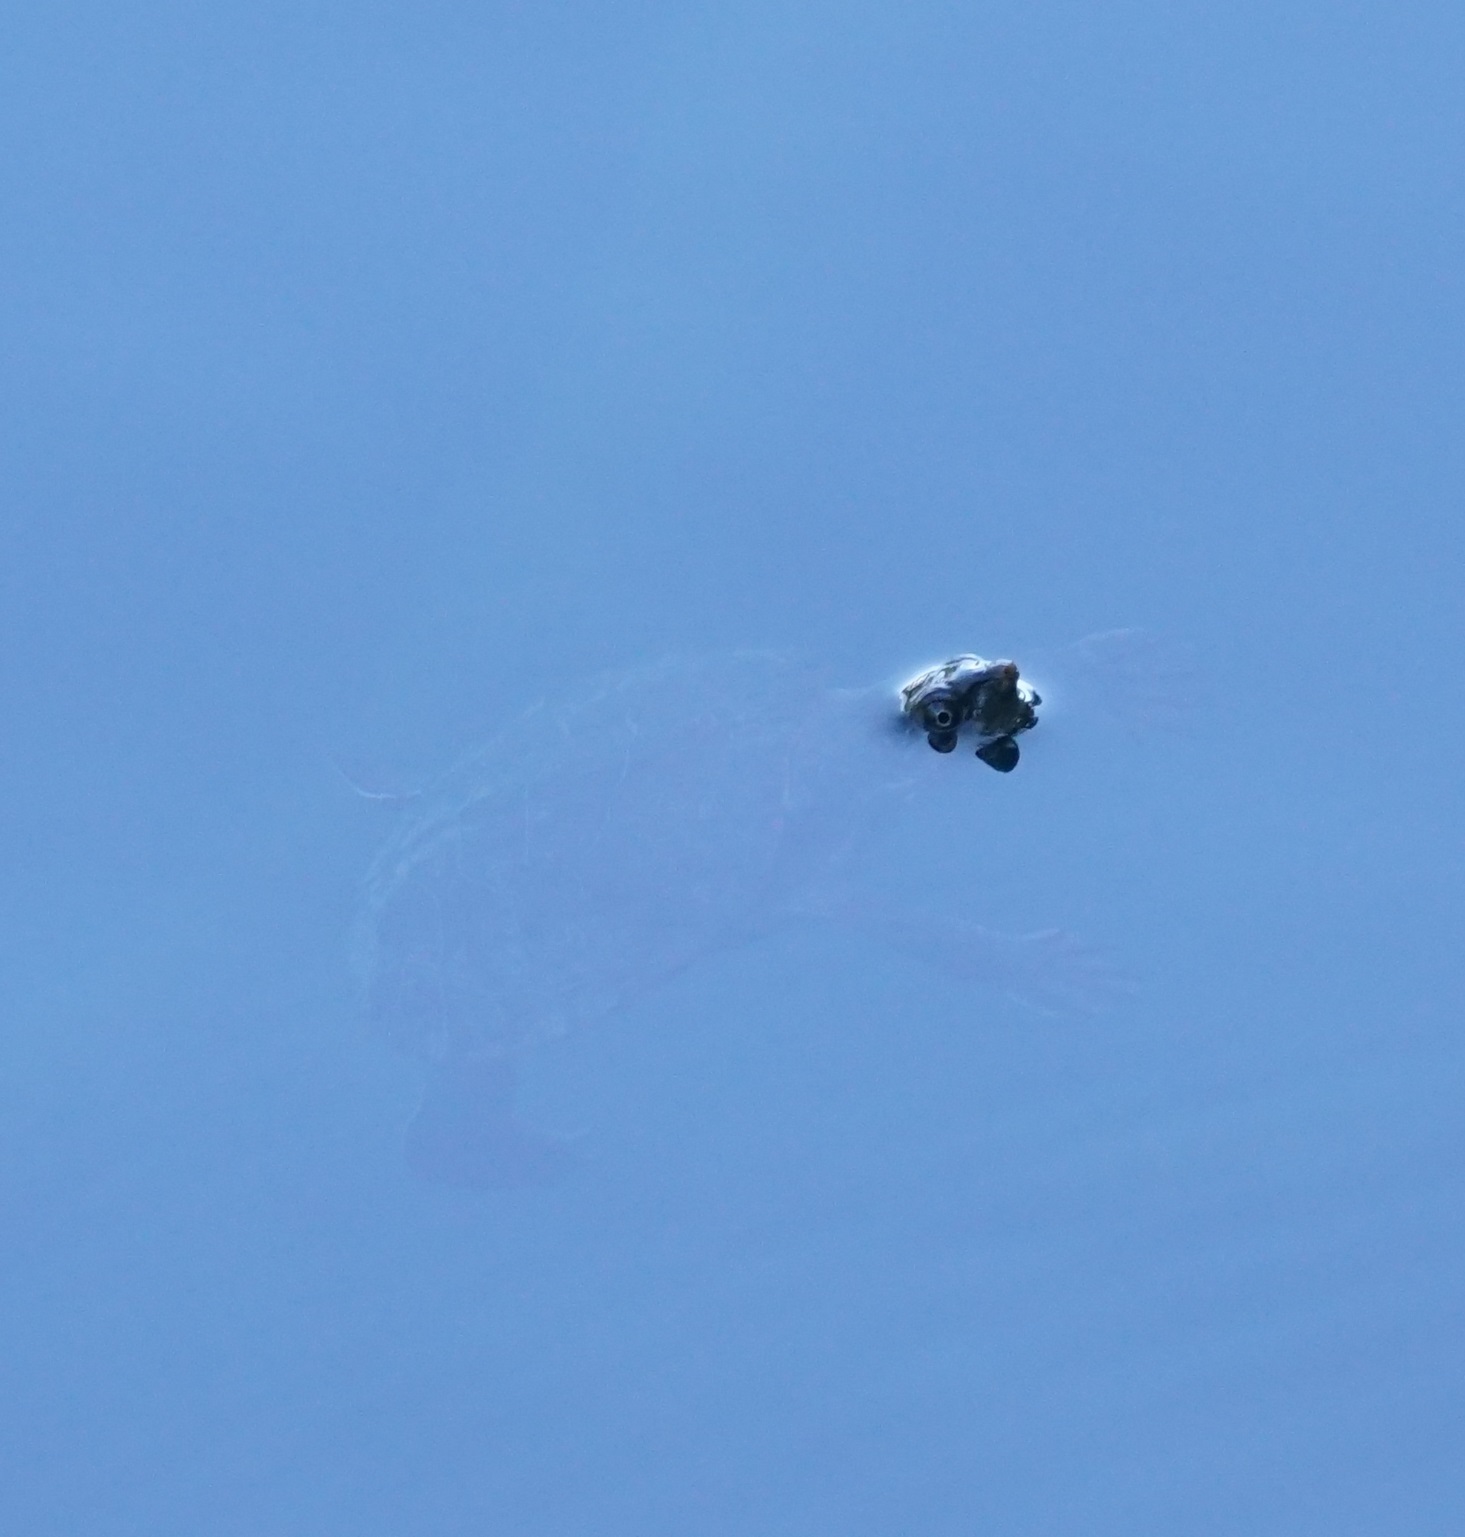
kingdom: Animalia
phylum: Chordata
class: Testudines
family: Chelidae
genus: Myuchelys
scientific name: Myuchelys latisternum
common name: Serrated snapping turtle
